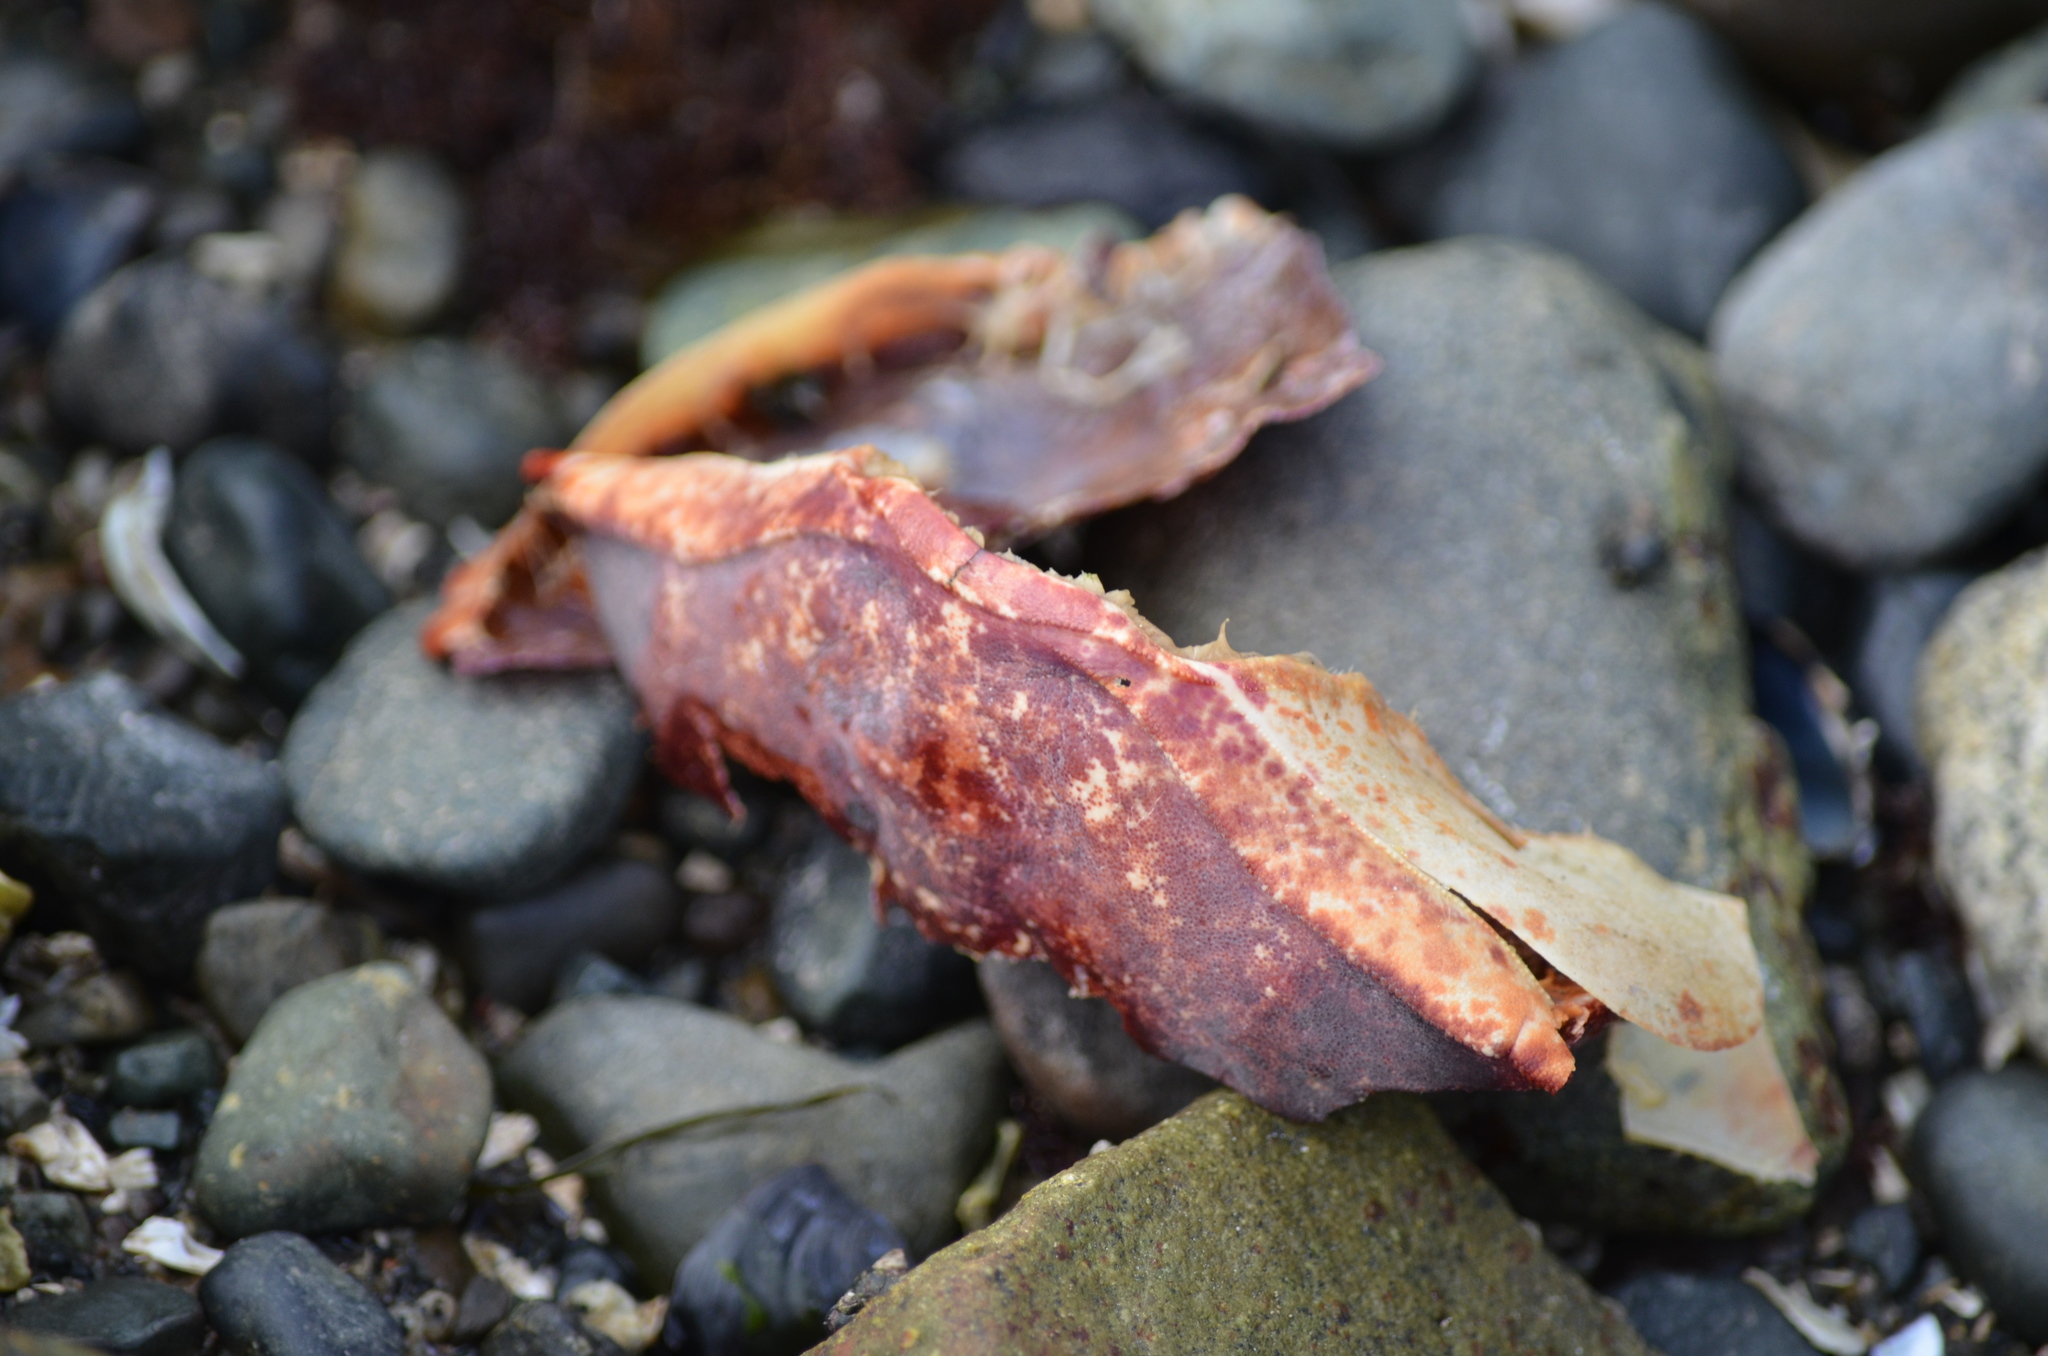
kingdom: Animalia
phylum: Arthropoda
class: Malacostraca
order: Decapoda
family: Cancridae
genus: Cancer
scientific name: Cancer productus
